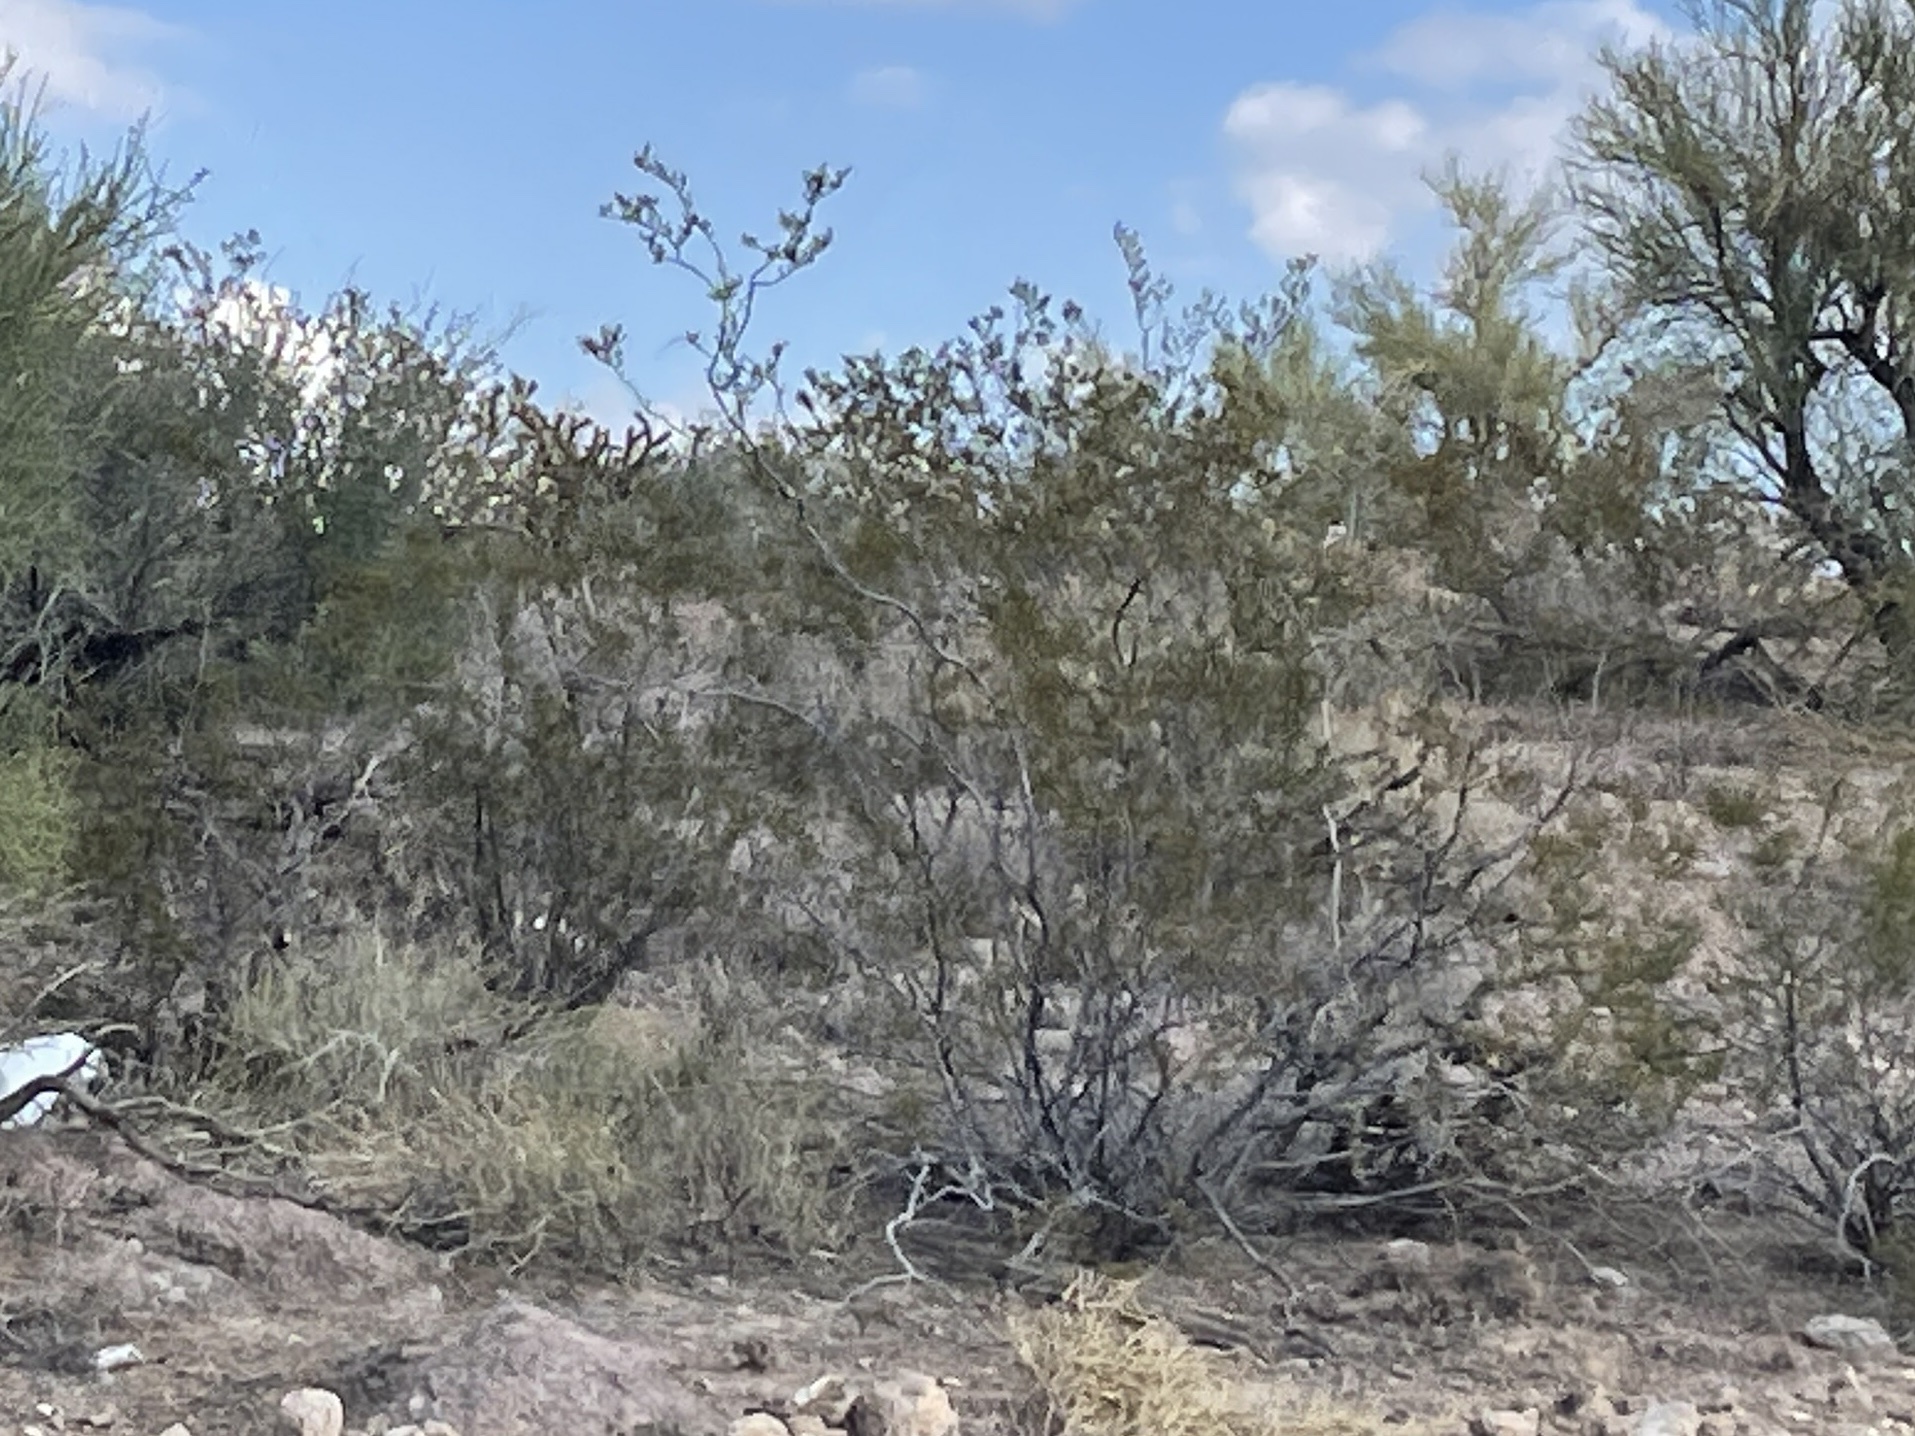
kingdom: Plantae
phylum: Tracheophyta
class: Magnoliopsida
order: Zygophyllales
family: Zygophyllaceae
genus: Larrea
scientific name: Larrea tridentata
